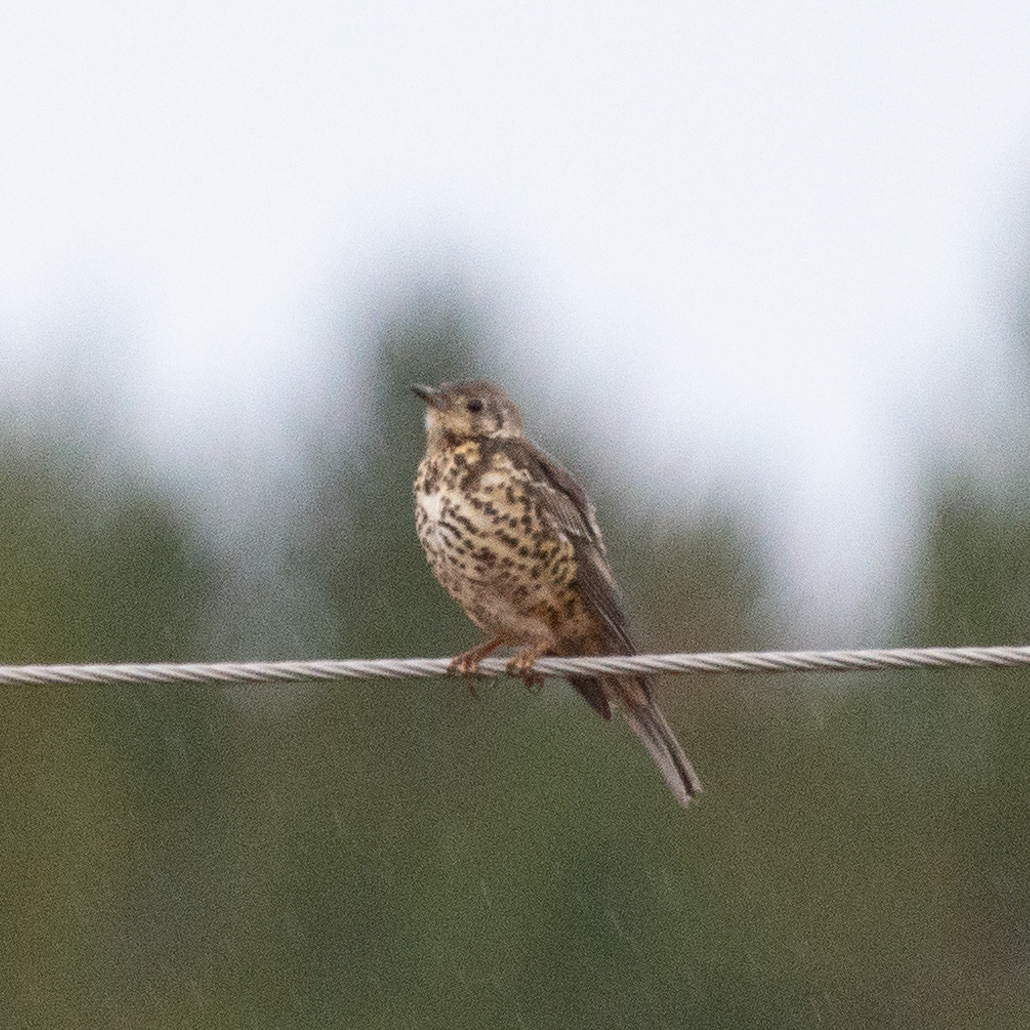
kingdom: Animalia
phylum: Chordata
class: Aves
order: Passeriformes
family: Turdidae
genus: Turdus
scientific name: Turdus viscivorus
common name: Mistle thrush
